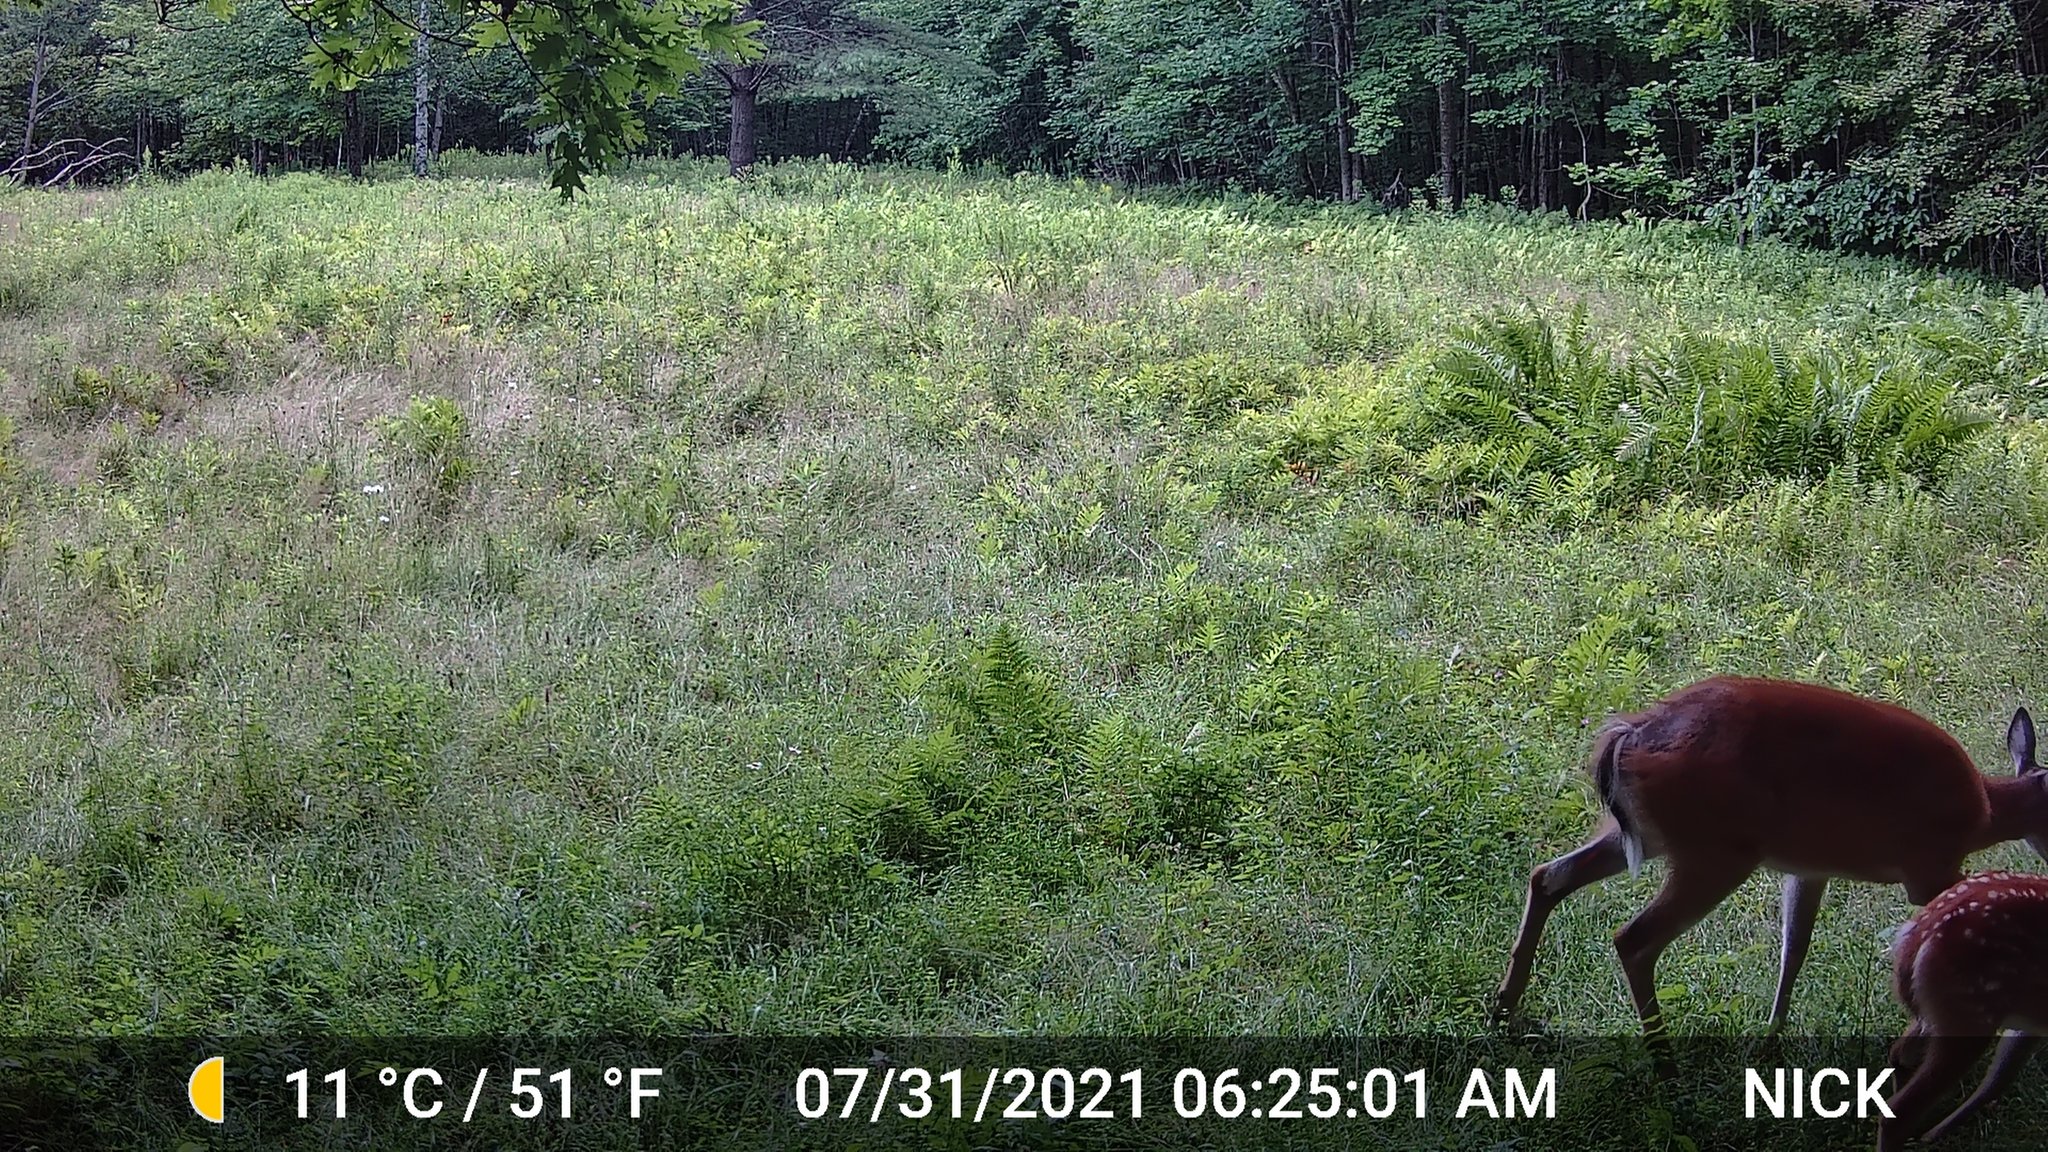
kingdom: Animalia
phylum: Chordata
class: Mammalia
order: Artiodactyla
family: Cervidae
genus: Odocoileus
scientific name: Odocoileus virginianus
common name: White-tailed deer
